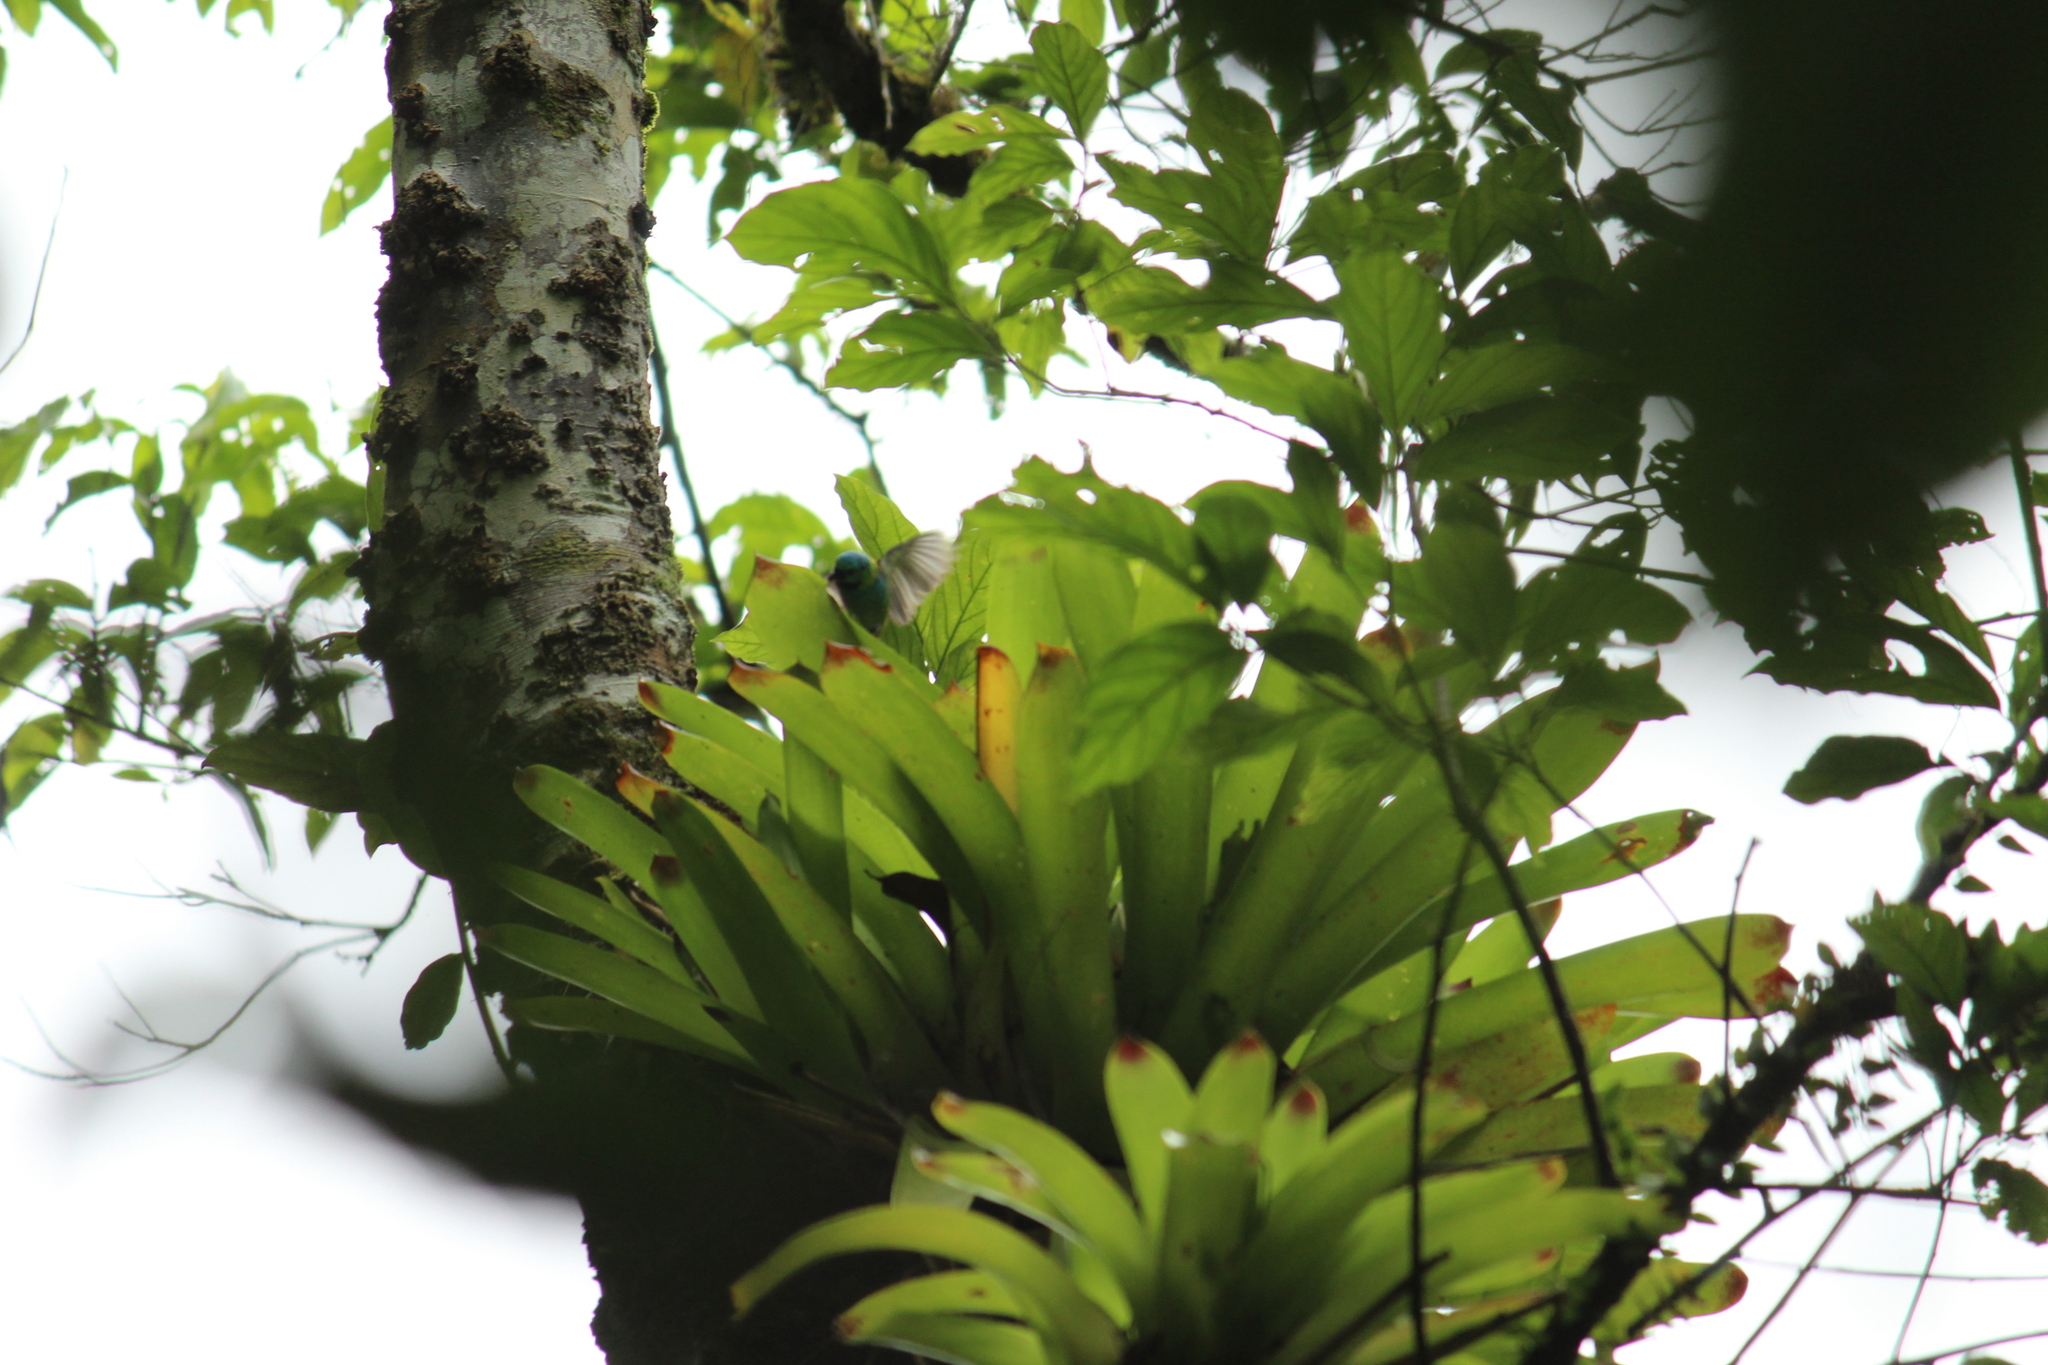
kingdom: Animalia
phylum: Chordata
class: Aves
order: Passeriformes
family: Thraupidae
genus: Tangara
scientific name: Tangara seledon
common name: Green-headed tanager
